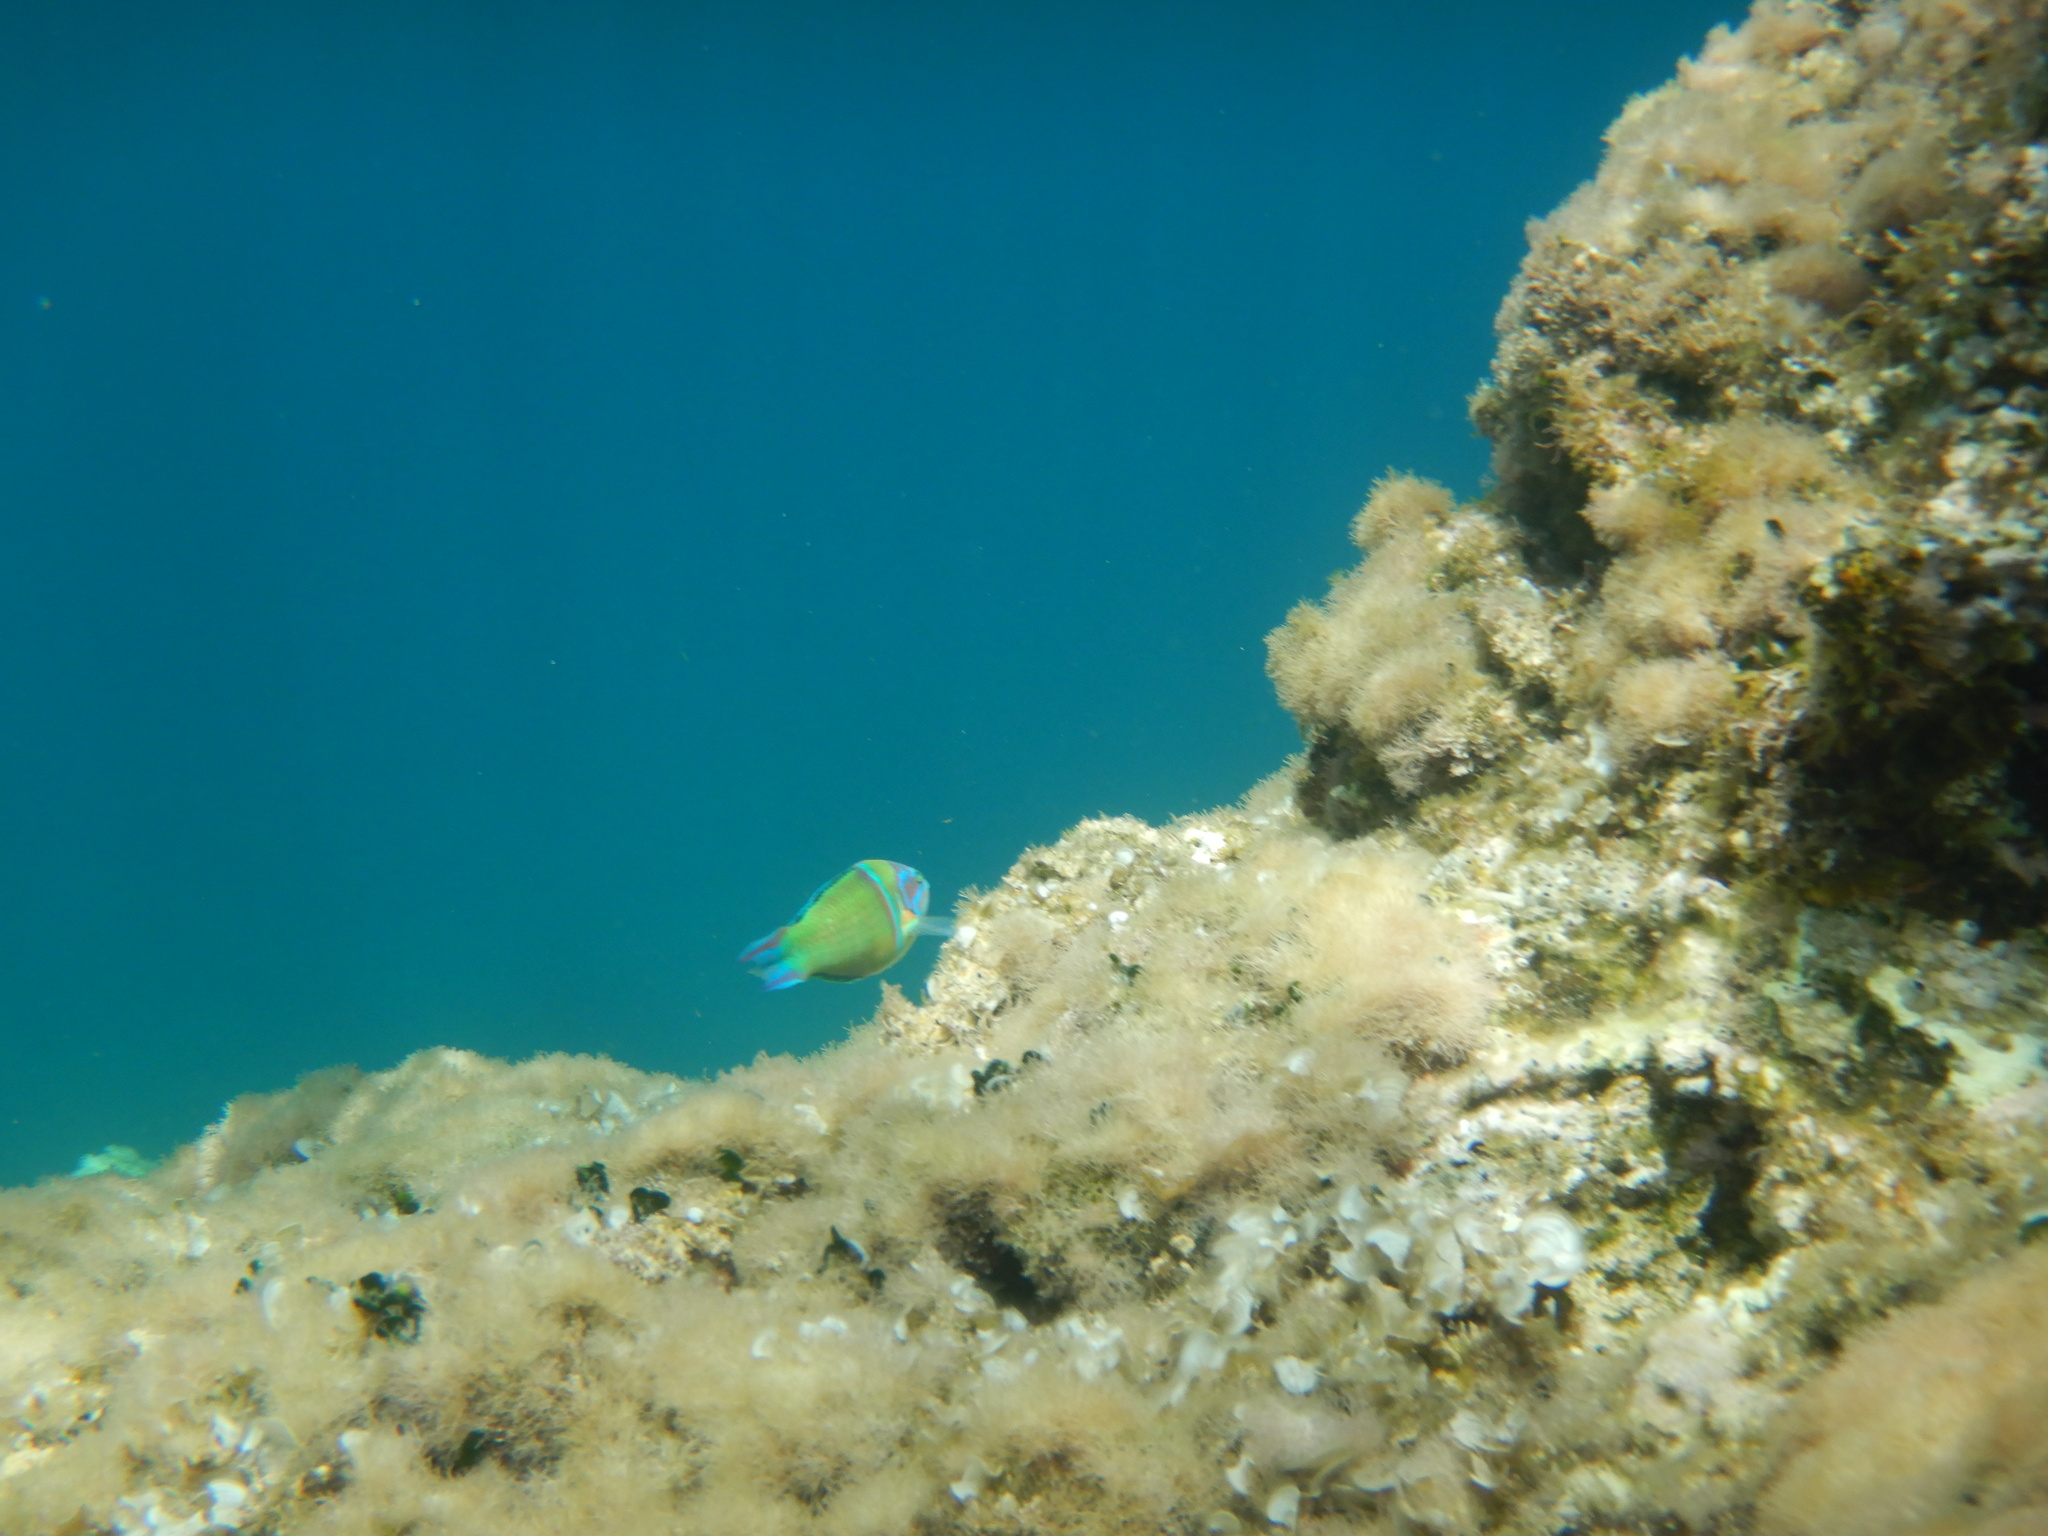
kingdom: Animalia
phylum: Chordata
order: Perciformes
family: Labridae
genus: Thalassoma
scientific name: Thalassoma pavo
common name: Ornate wrasse
